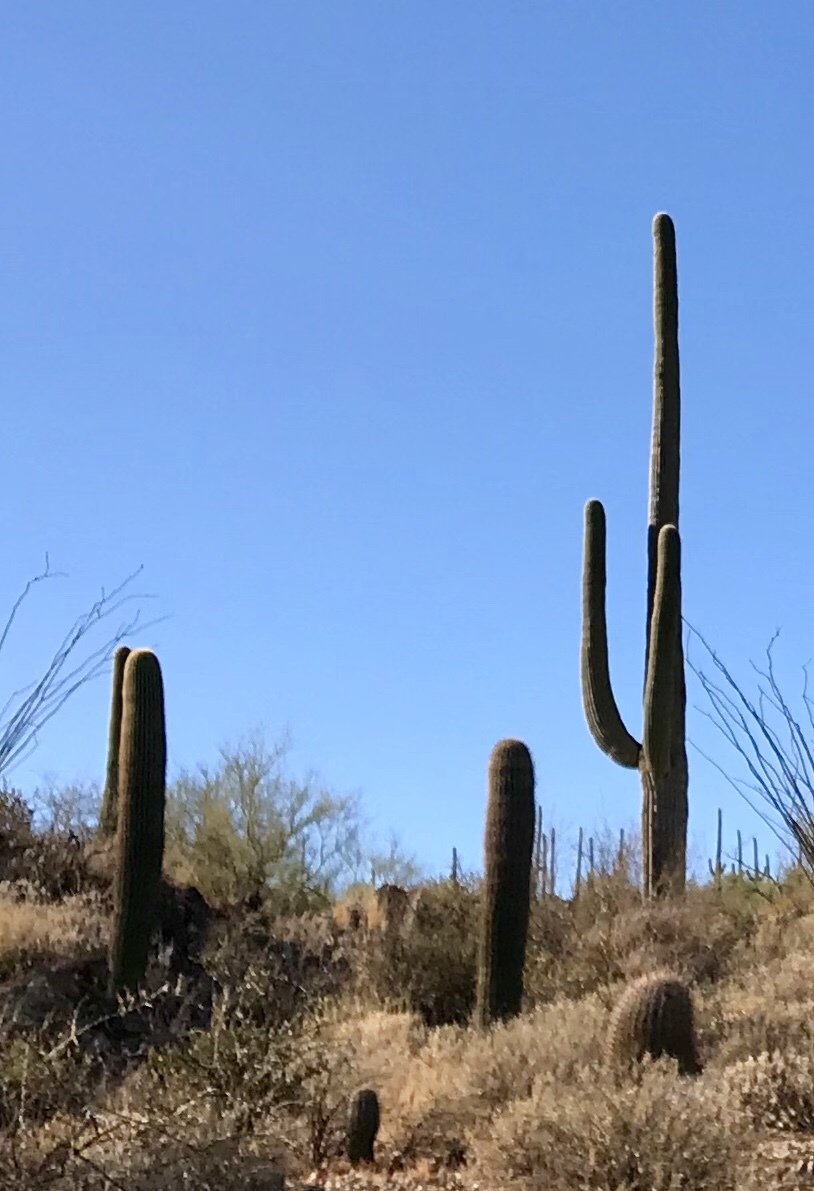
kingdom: Plantae
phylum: Tracheophyta
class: Magnoliopsida
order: Caryophyllales
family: Cactaceae
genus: Carnegiea
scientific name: Carnegiea gigantea
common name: Saguaro
